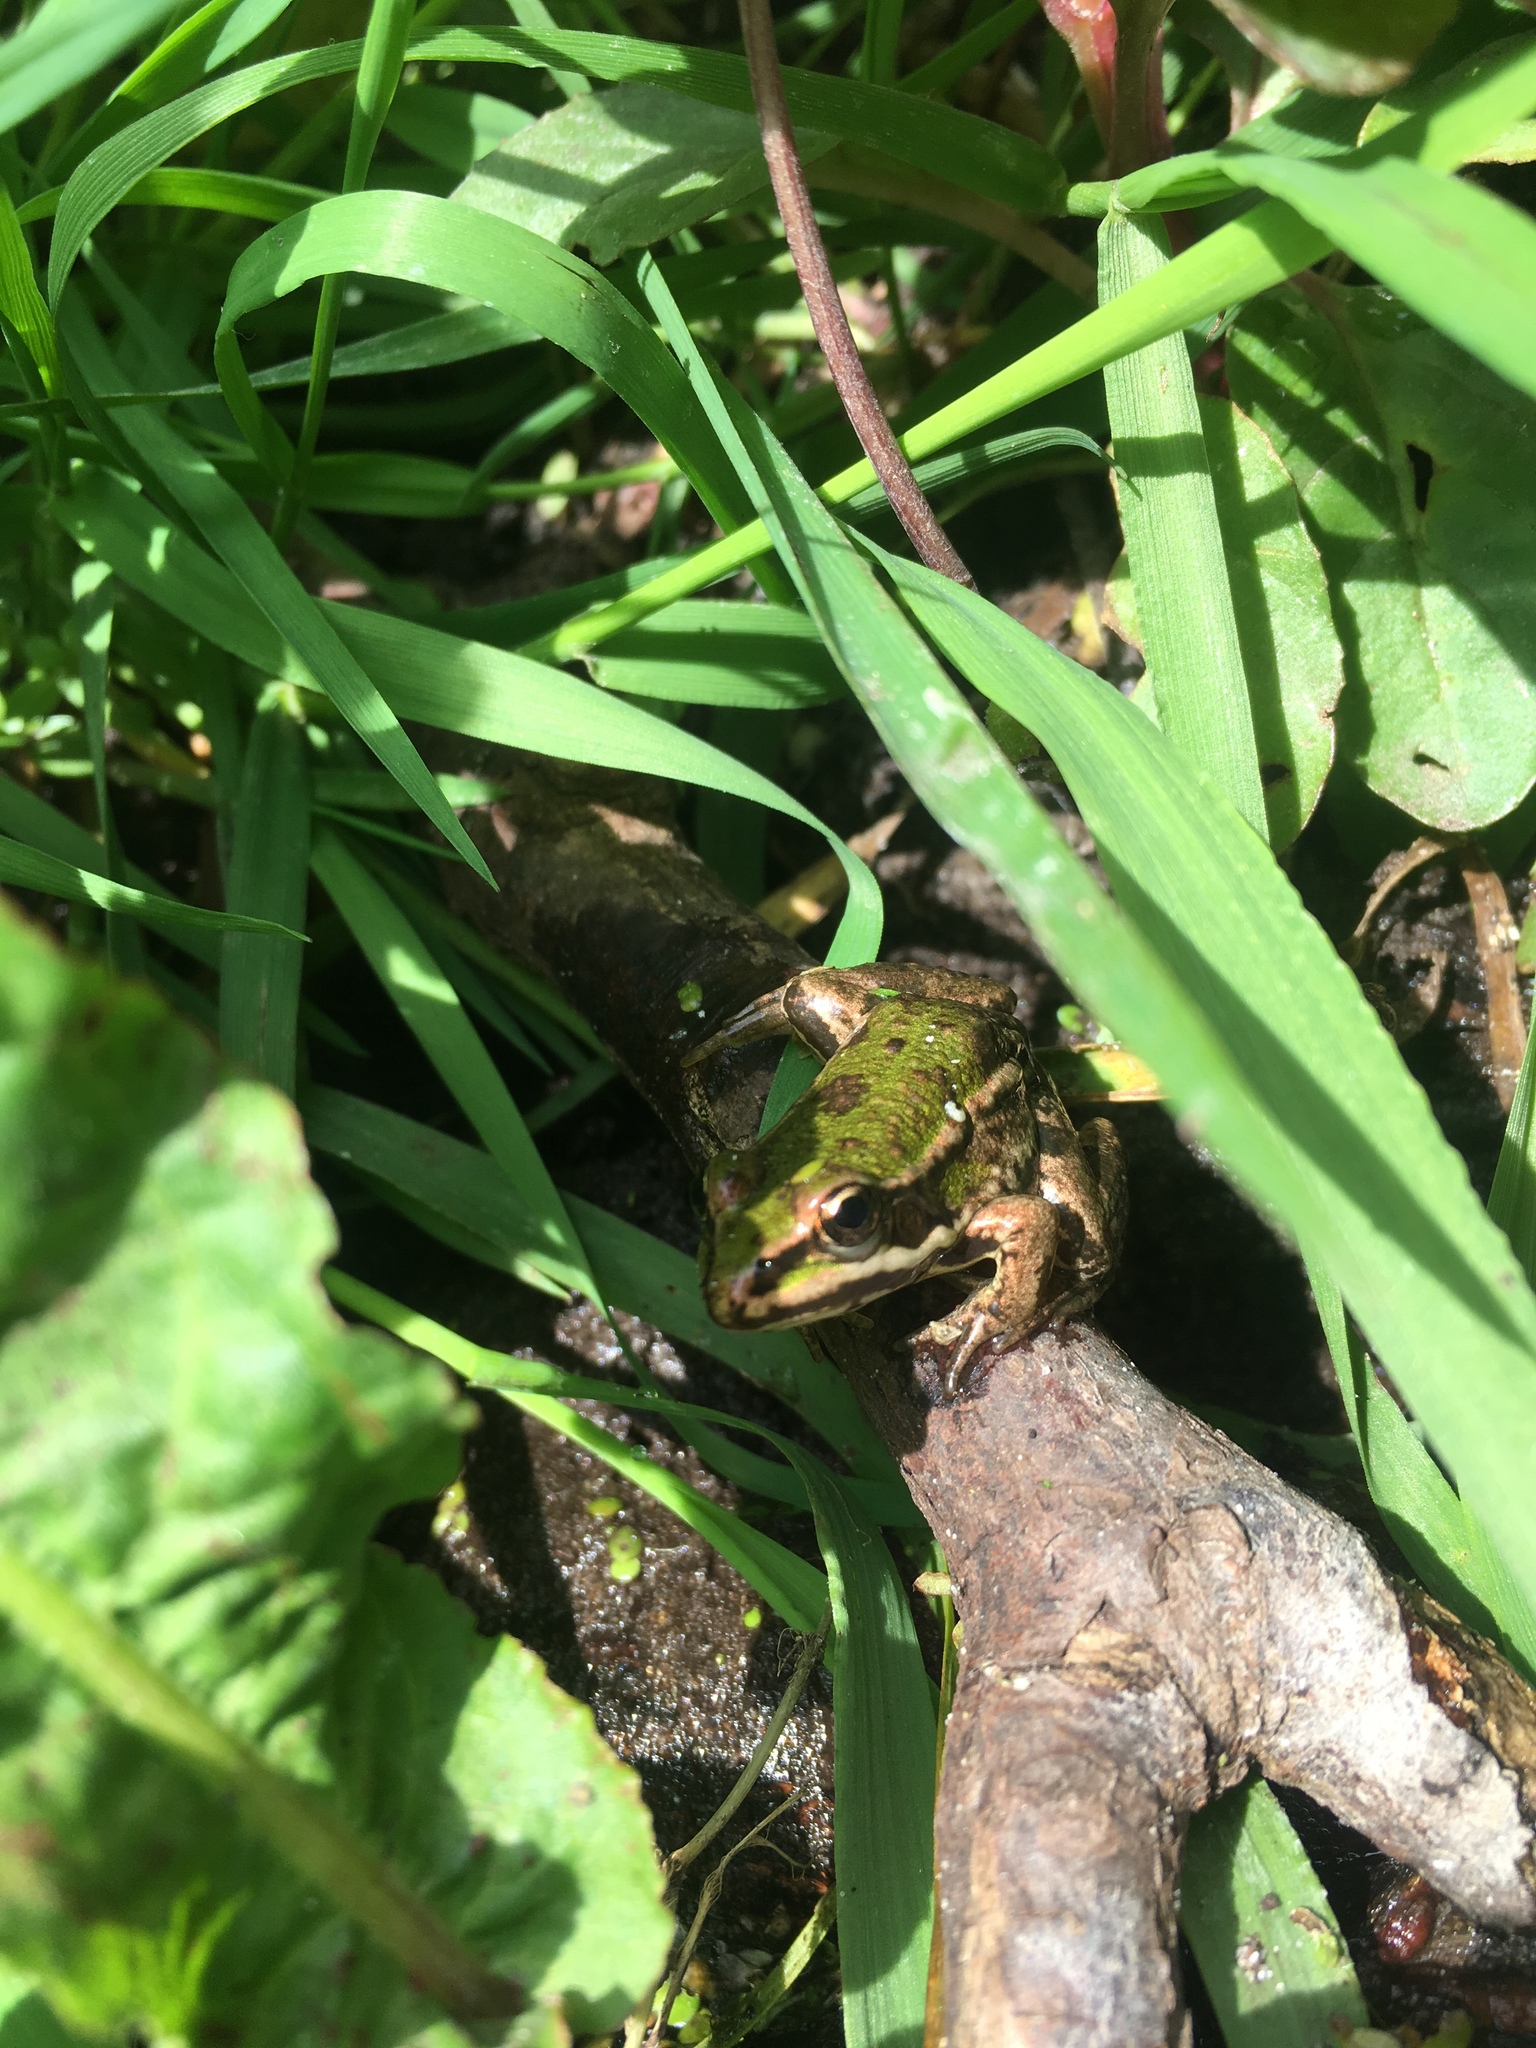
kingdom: Animalia
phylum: Chordata
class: Amphibia
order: Anura
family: Ranidae
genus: Pelophylax
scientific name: Pelophylax
